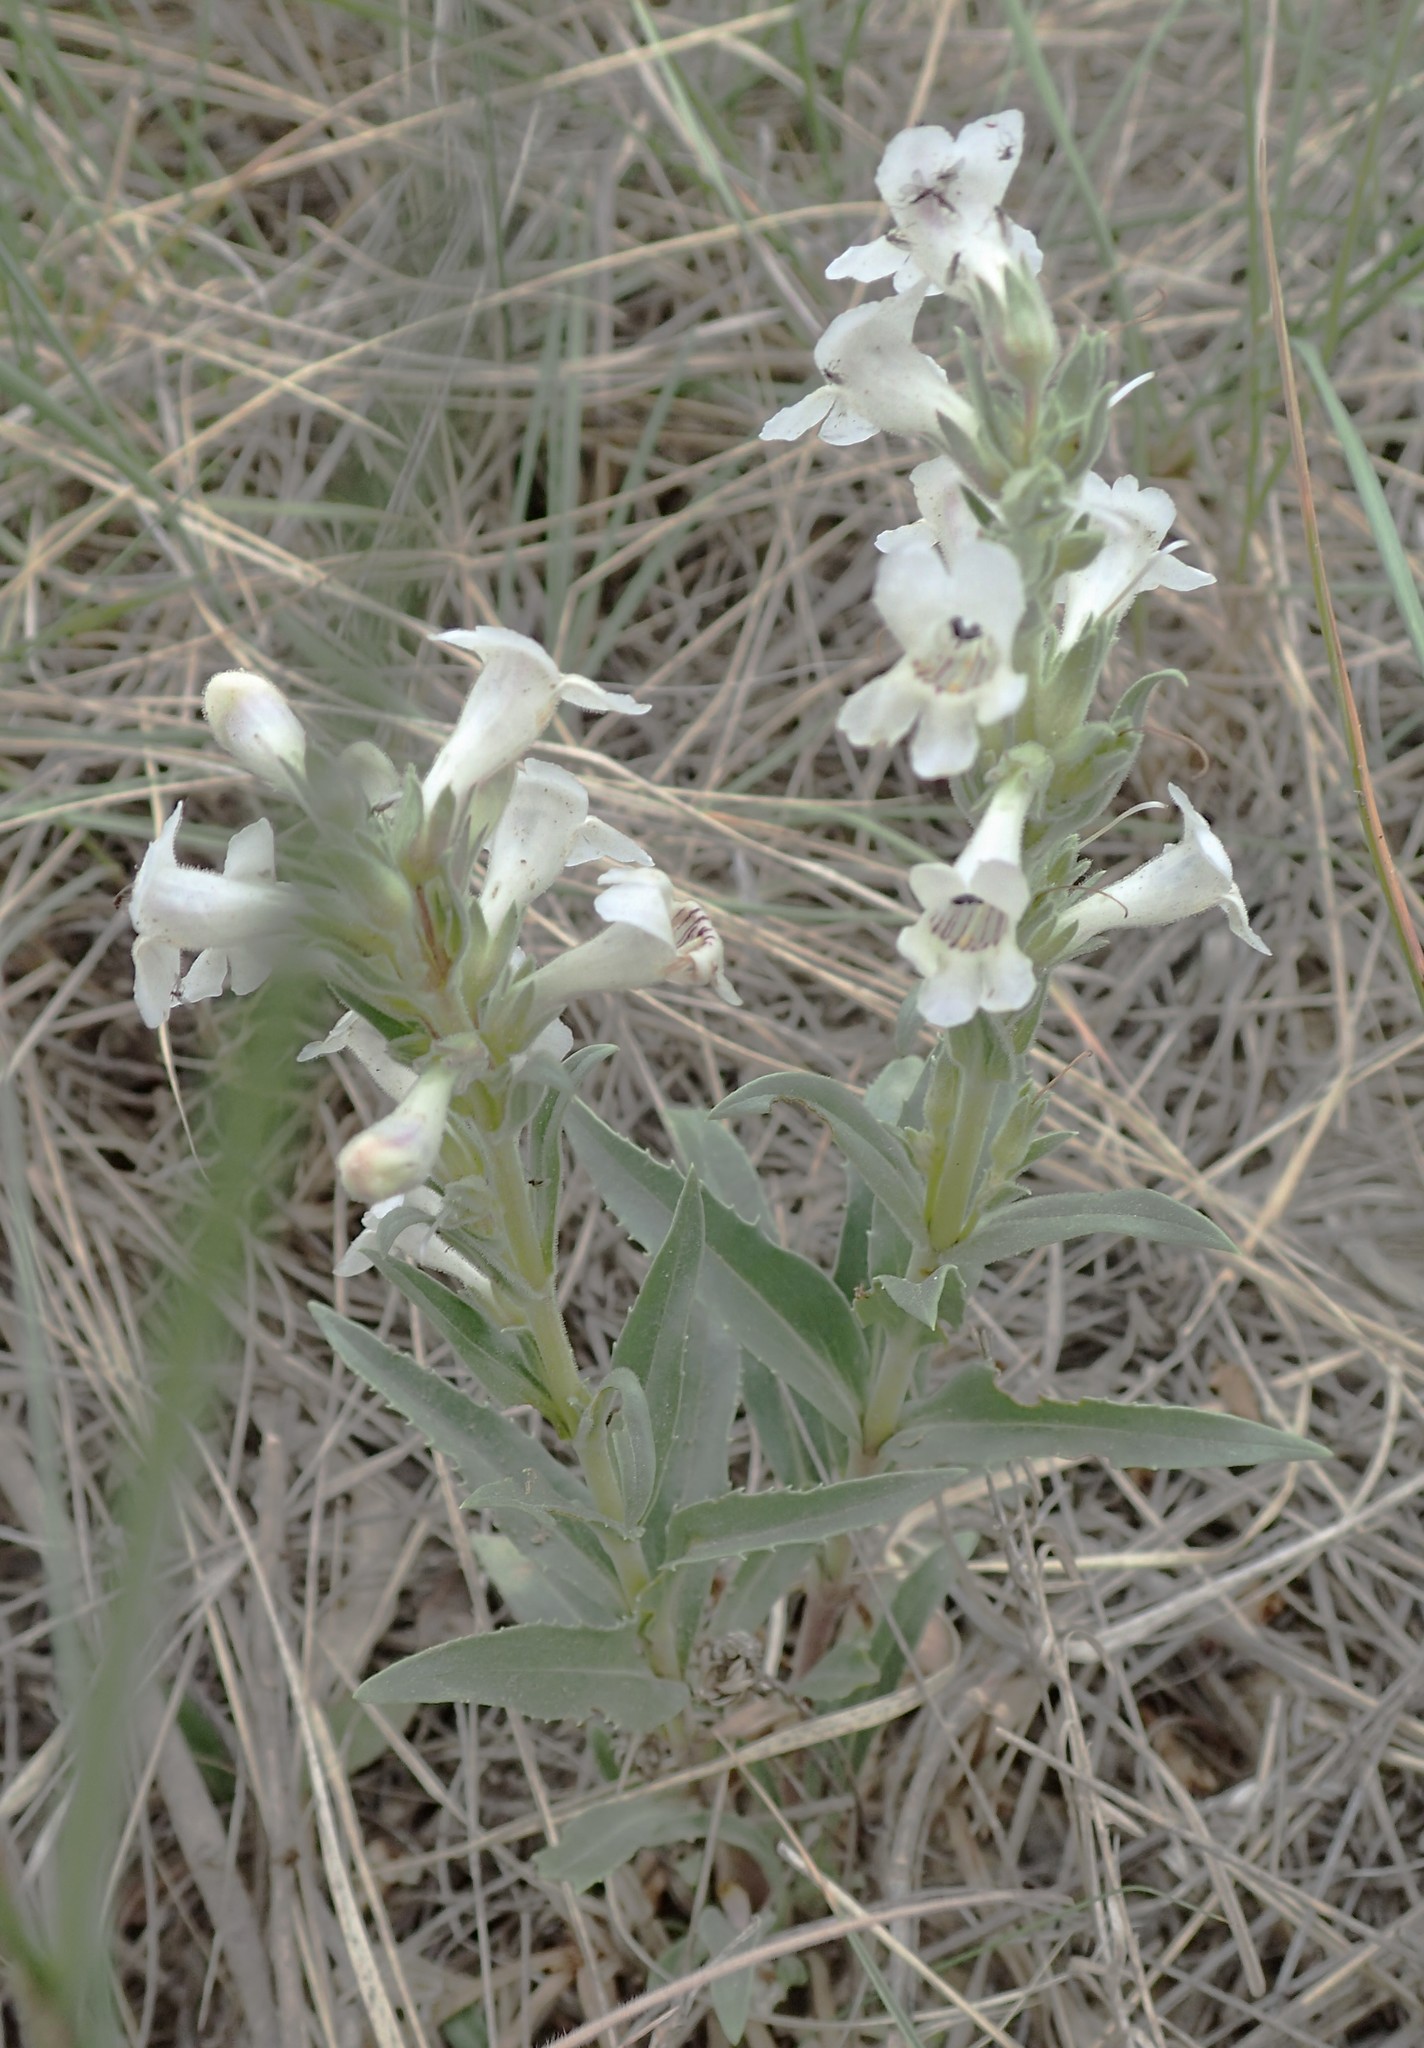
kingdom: Plantae
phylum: Tracheophyta
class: Magnoliopsida
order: Lamiales
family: Plantaginaceae
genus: Penstemon
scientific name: Penstemon albidus
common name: White beardtongue
